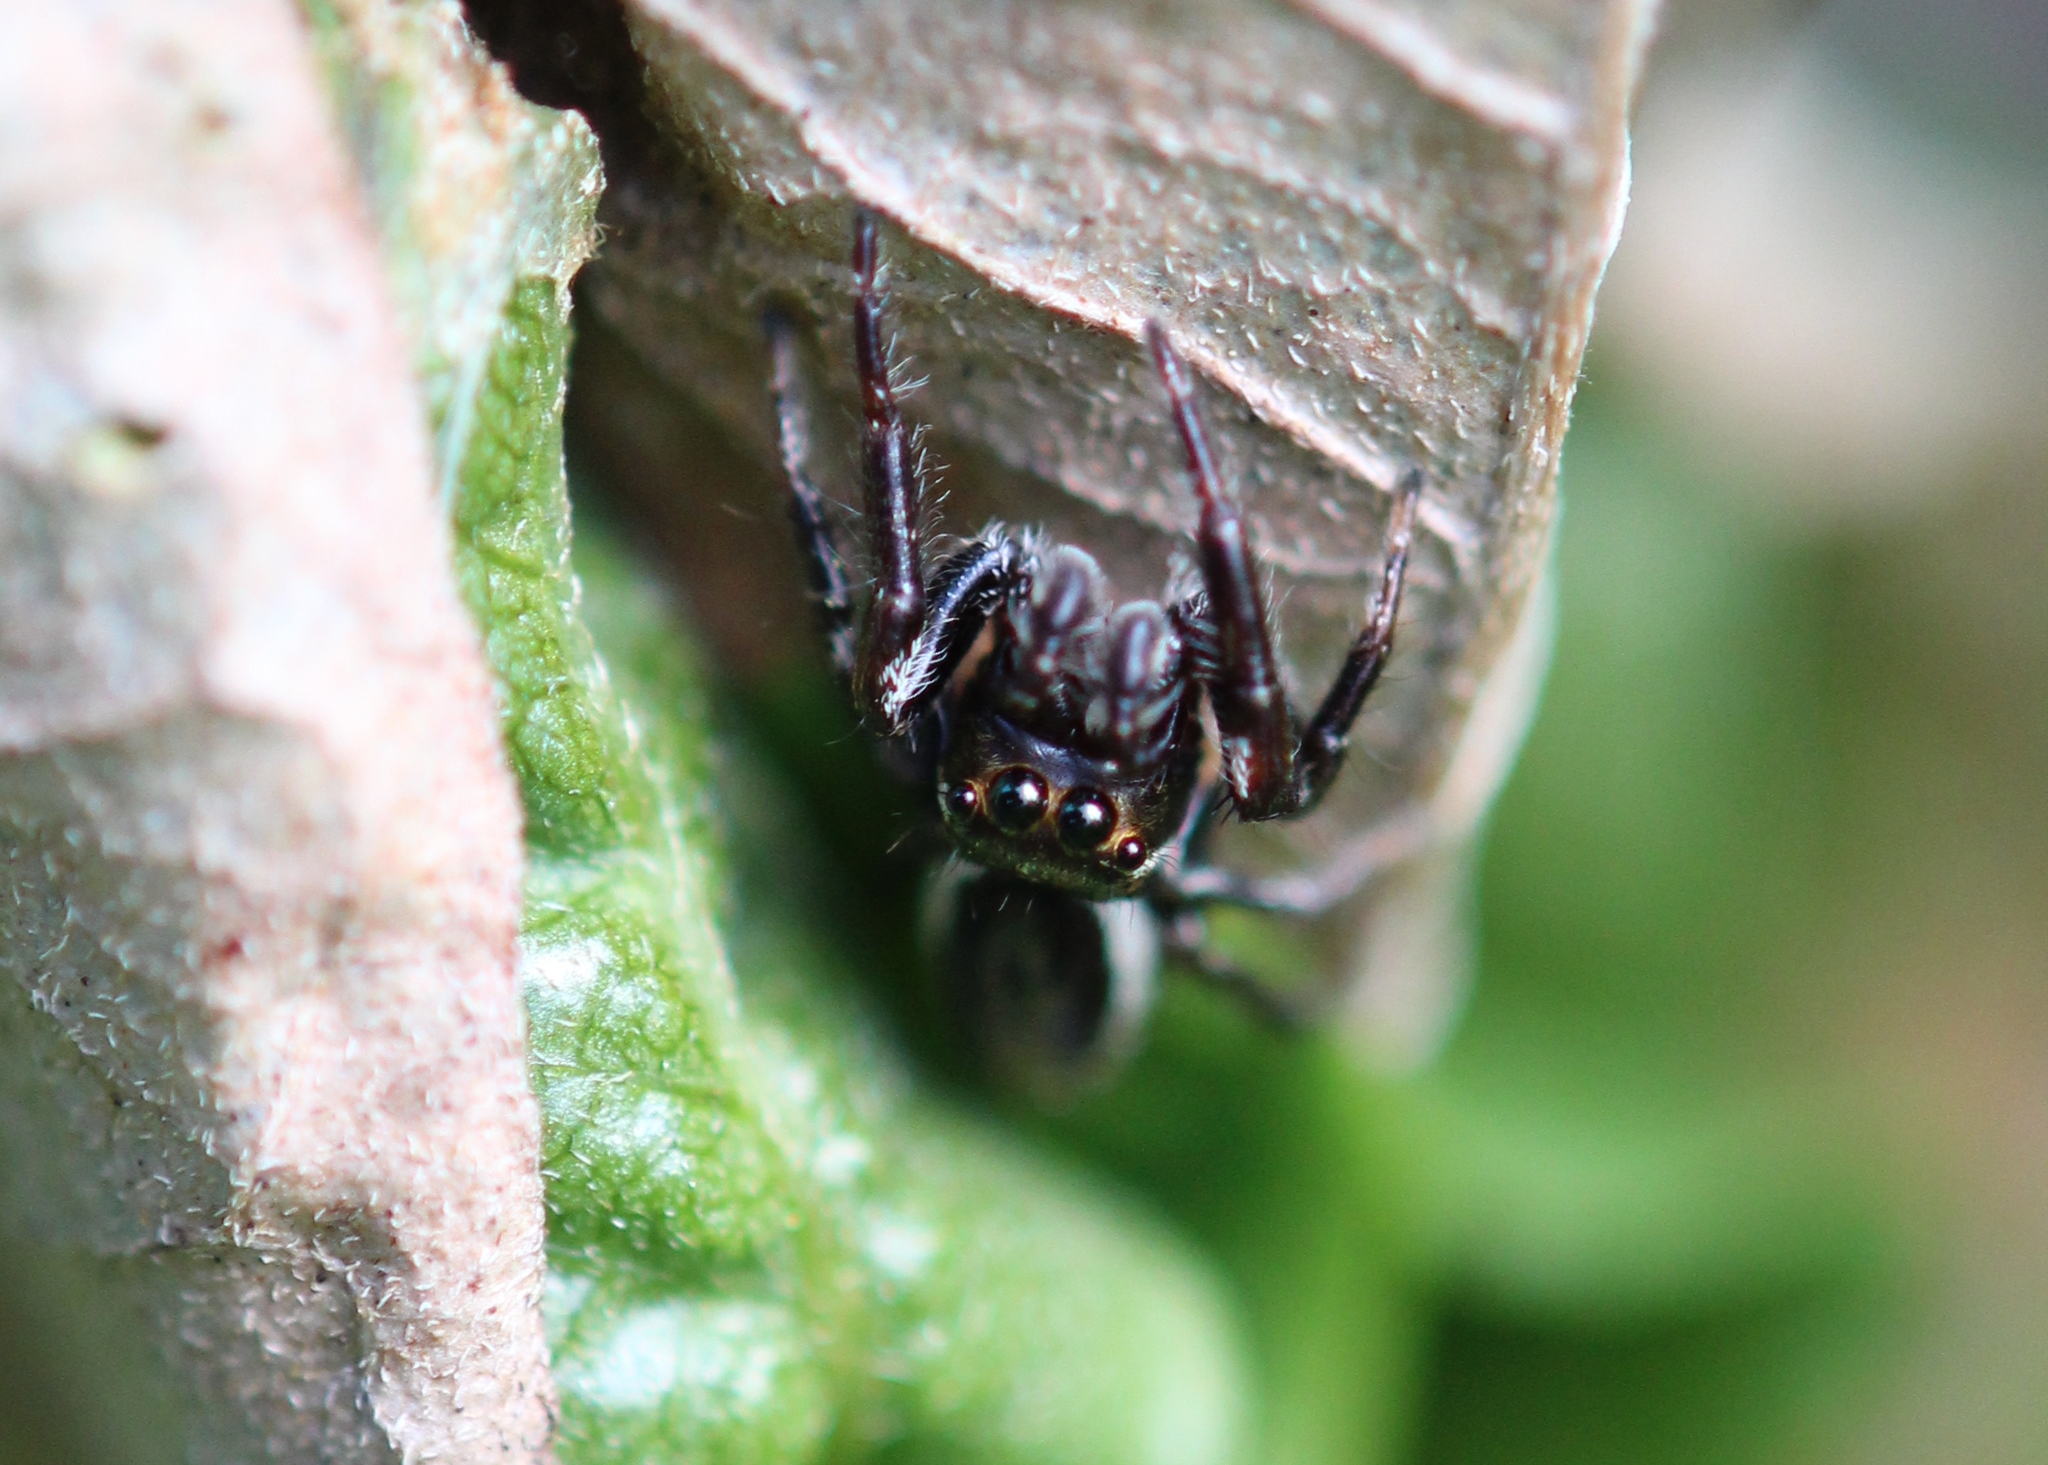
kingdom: Animalia
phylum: Arthropoda
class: Arachnida
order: Araneae
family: Salticidae
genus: Eris
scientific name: Eris militaris
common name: Bronze jumper
